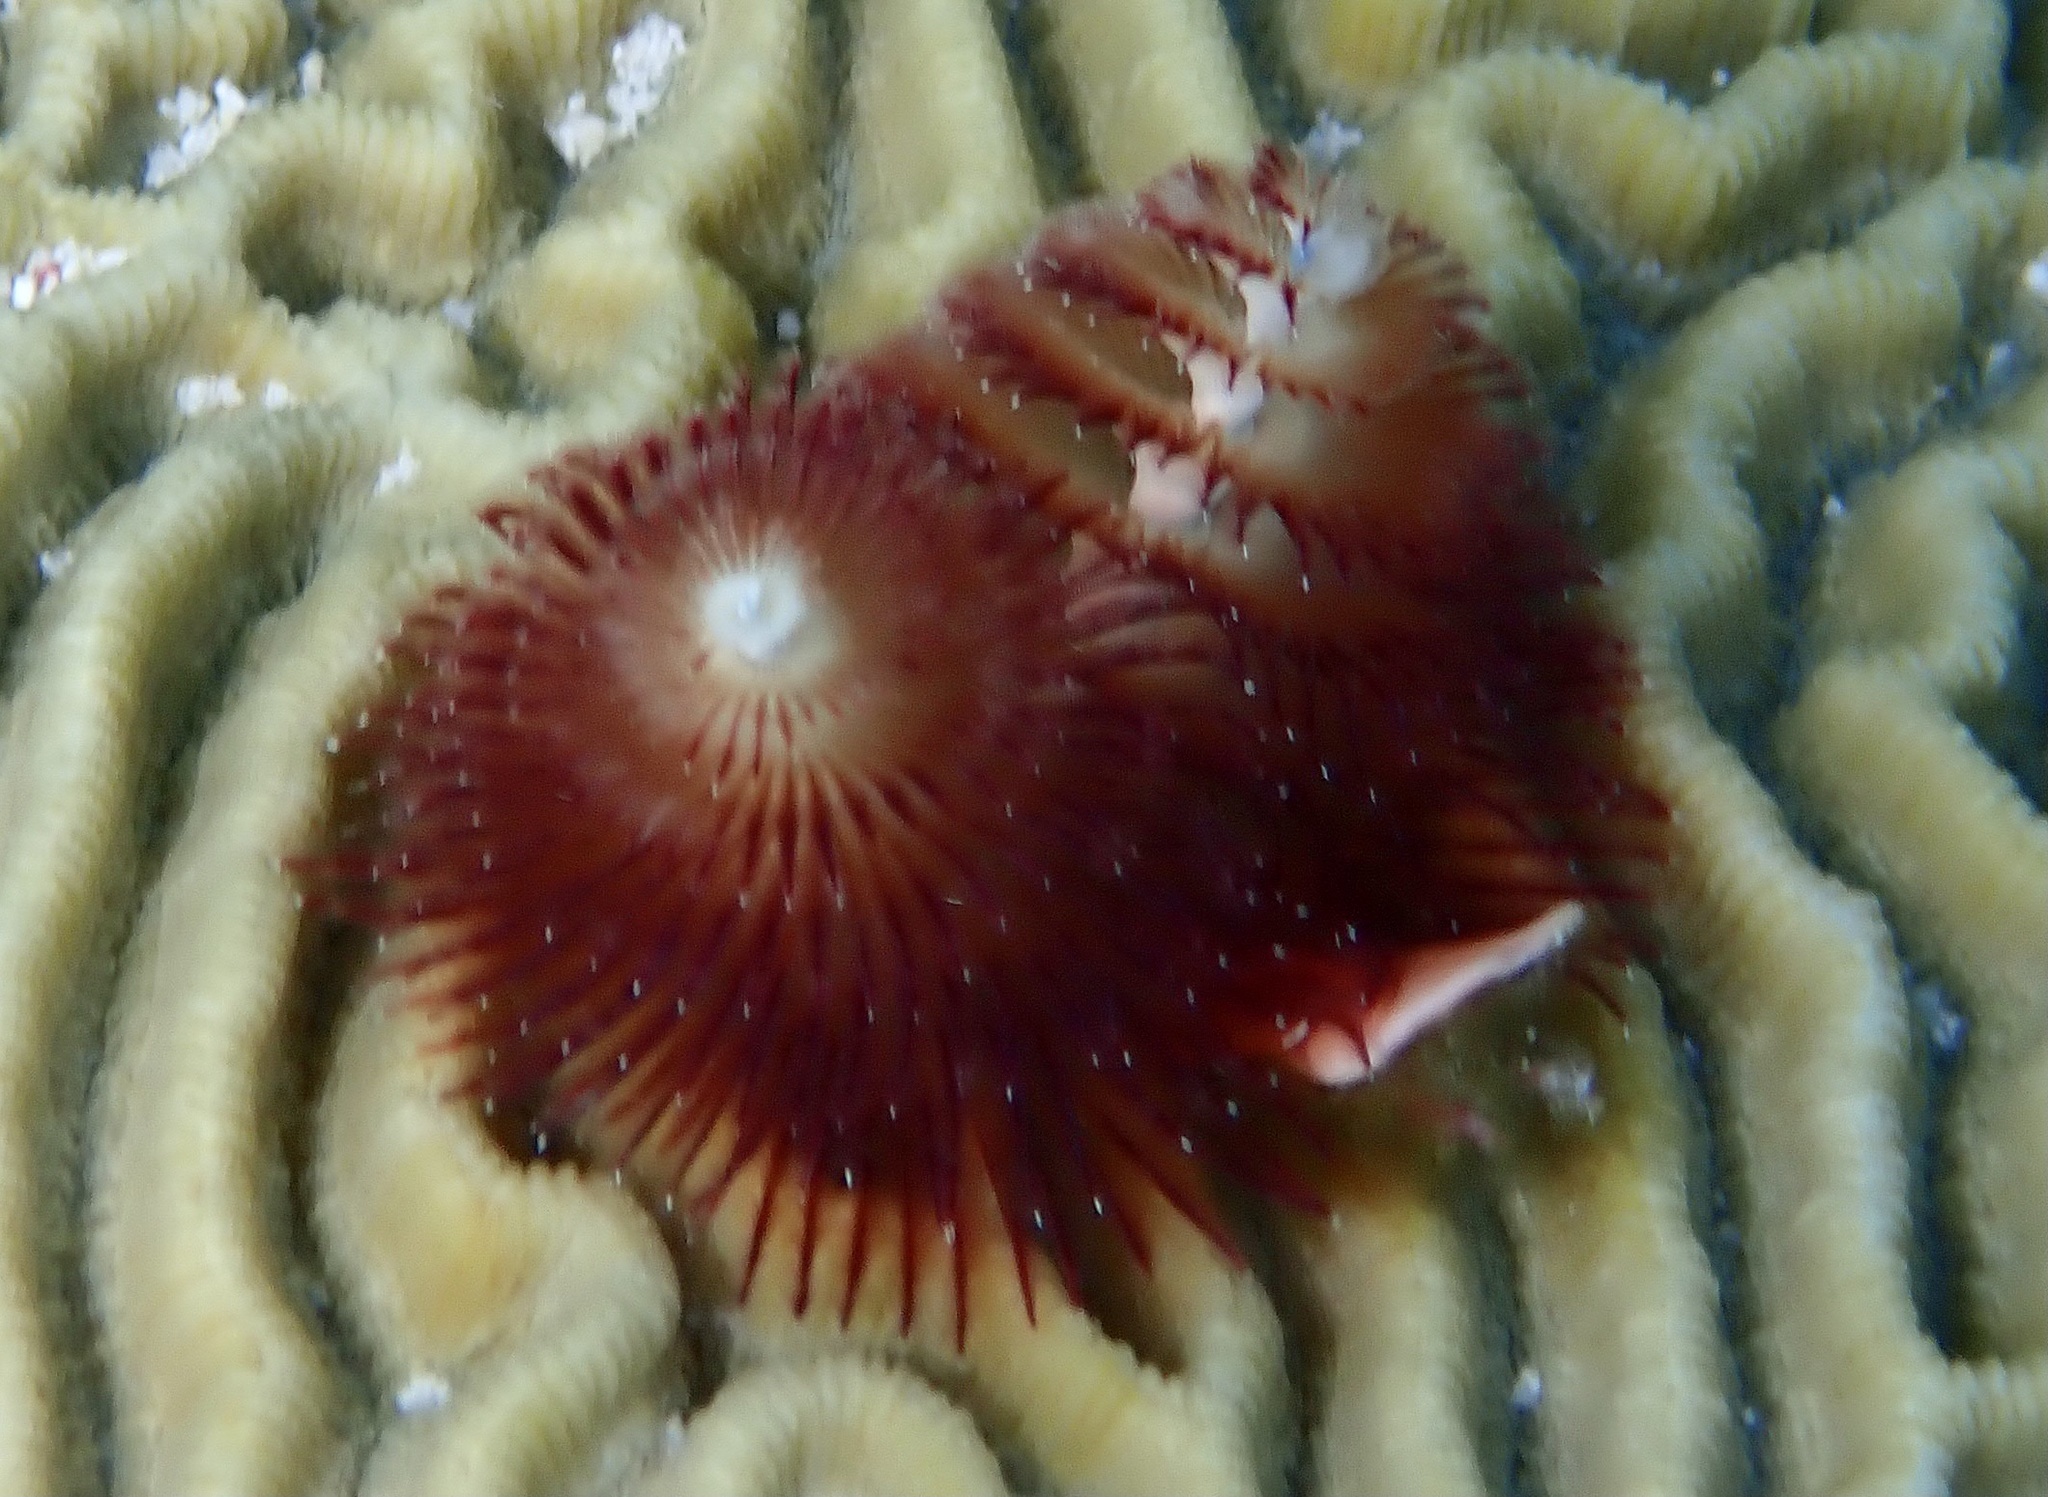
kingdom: Animalia
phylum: Annelida
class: Polychaeta
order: Sabellida
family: Serpulidae
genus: Spirobranchus
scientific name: Spirobranchus giganteus
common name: Christmas tree worm
